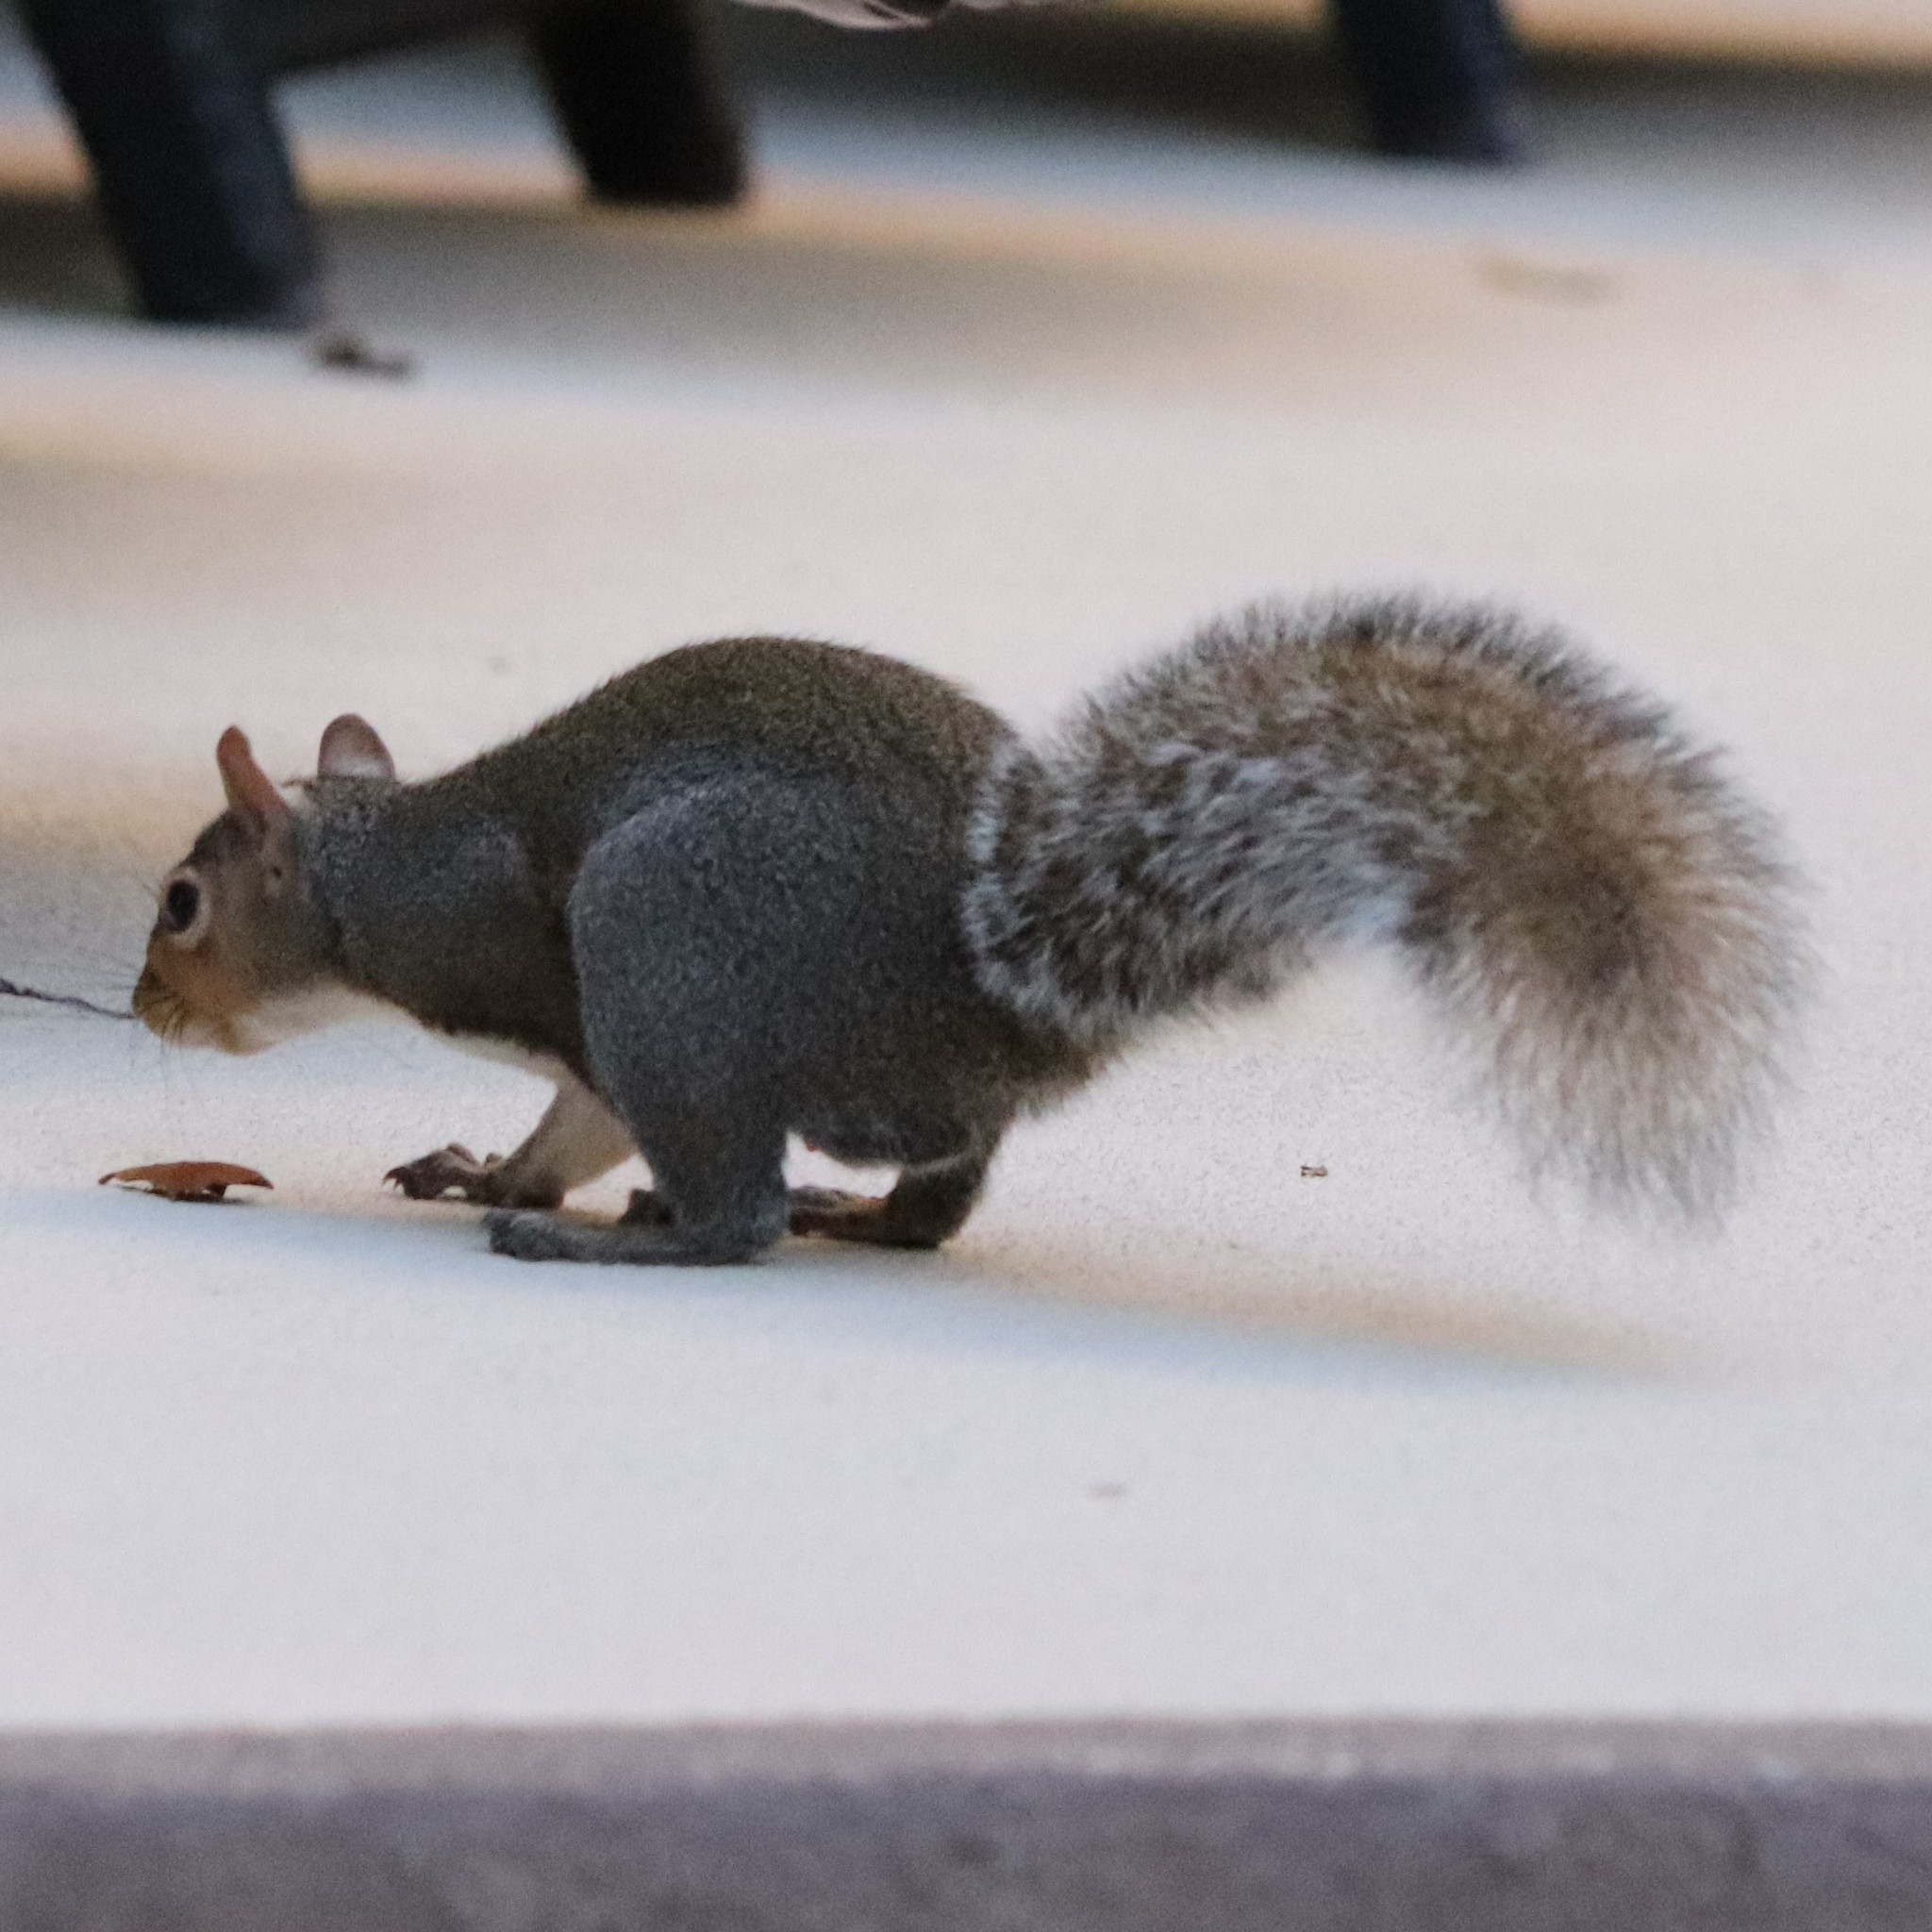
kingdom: Animalia
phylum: Chordata
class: Mammalia
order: Rodentia
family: Sciuridae
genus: Sciurus
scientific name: Sciurus carolinensis
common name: Eastern gray squirrel
